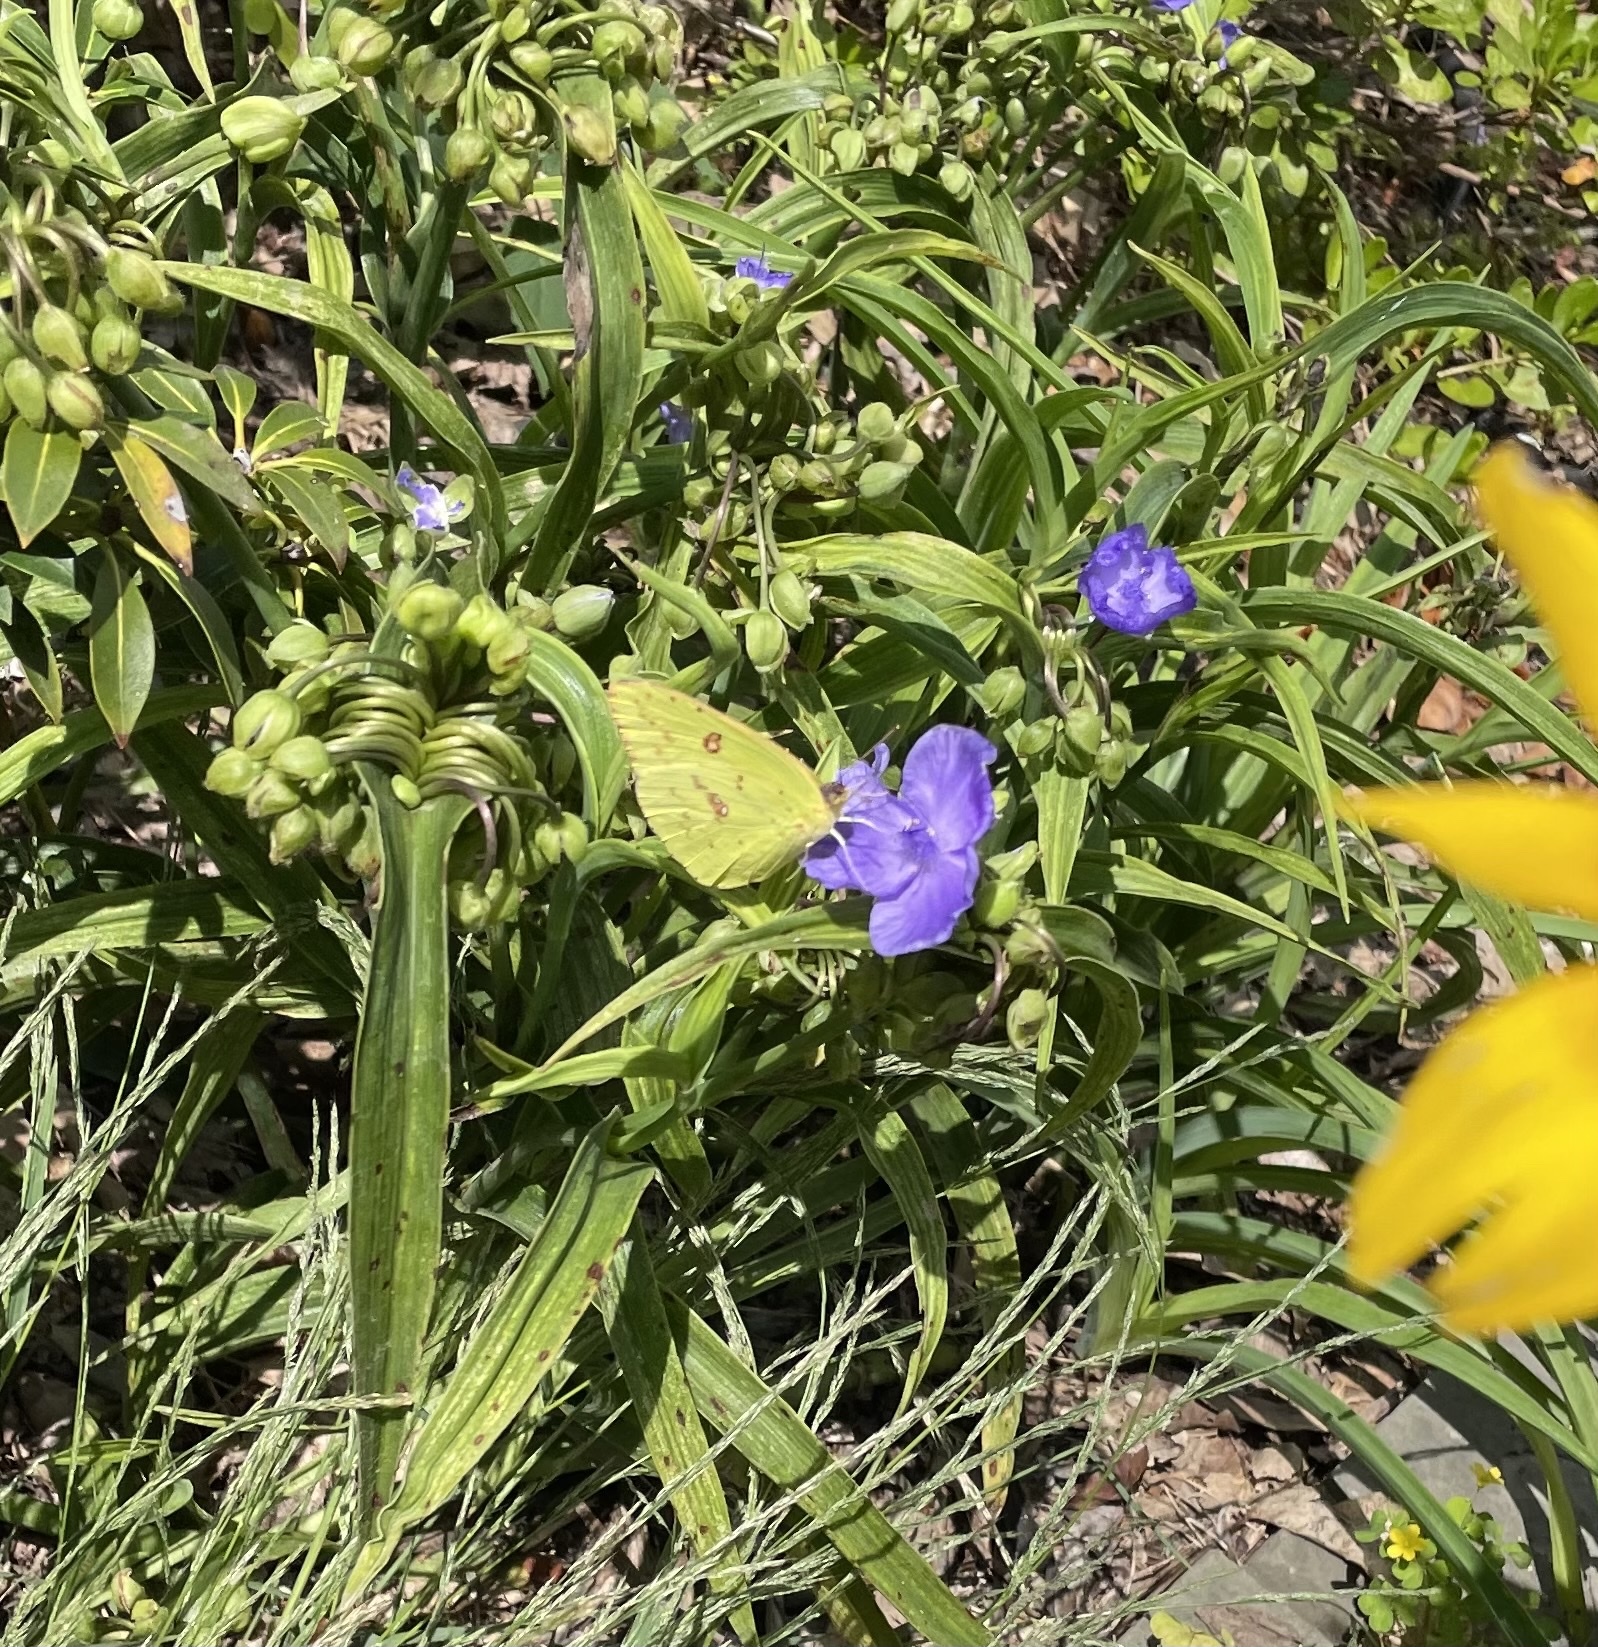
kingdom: Animalia
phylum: Arthropoda
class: Insecta
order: Lepidoptera
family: Pieridae
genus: Phoebis
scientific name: Phoebis sennae
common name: Cloudless sulphur
